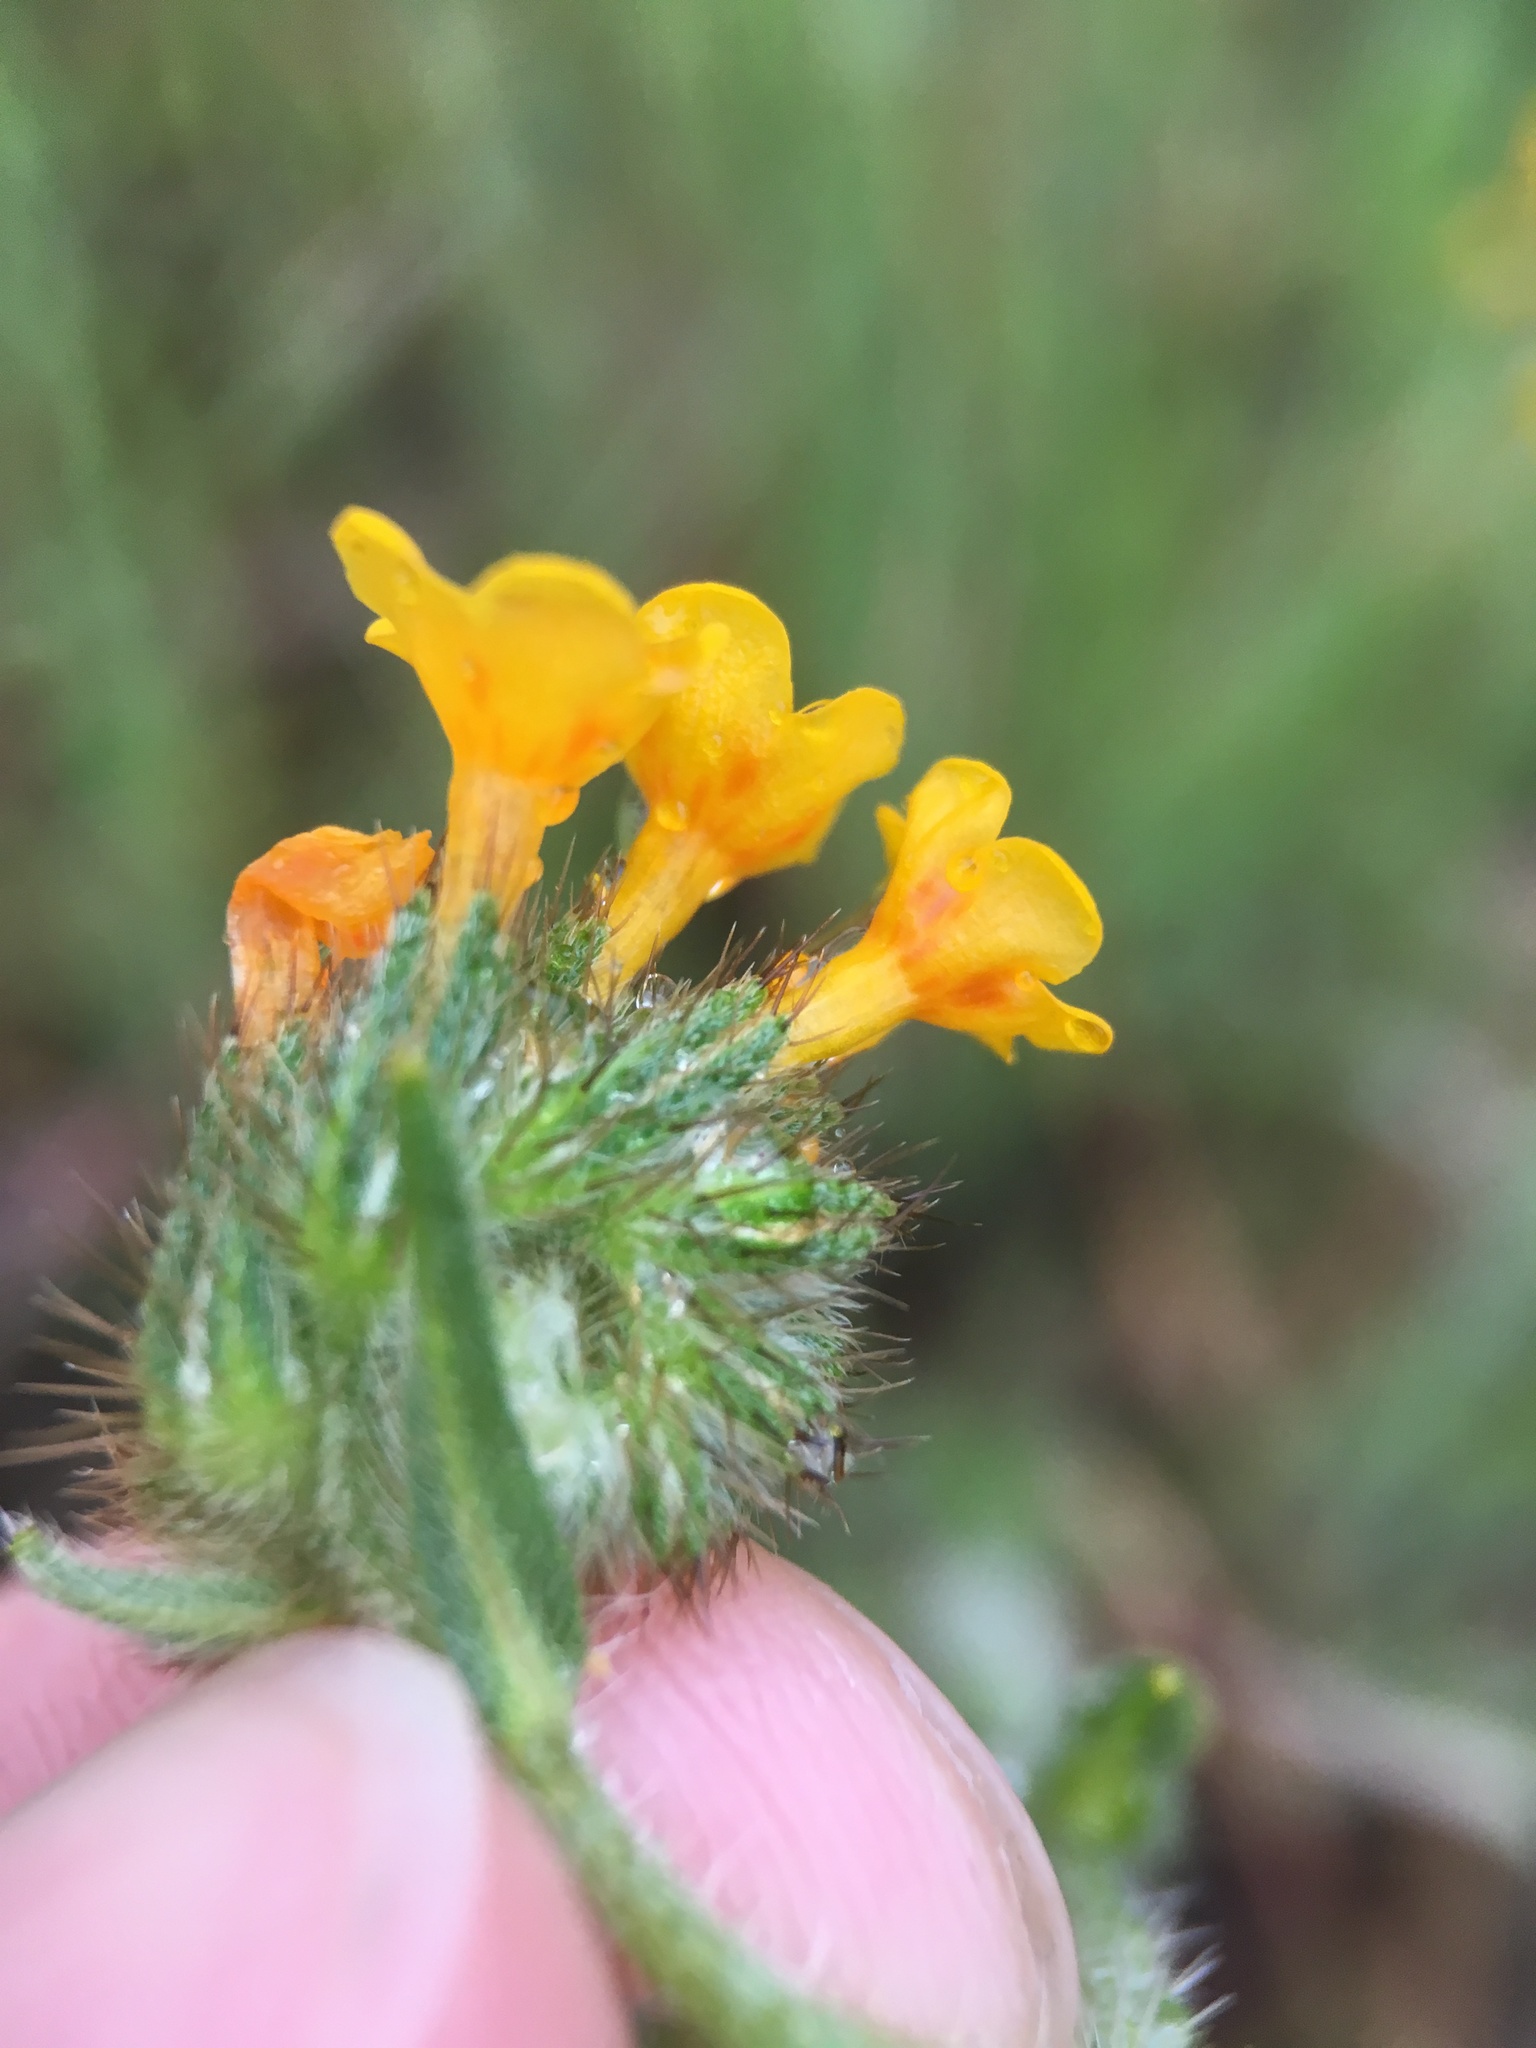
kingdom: Plantae
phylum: Tracheophyta
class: Magnoliopsida
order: Boraginales
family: Boraginaceae
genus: Amsinckia
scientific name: Amsinckia menziesii
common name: Menzies' fiddleneck
